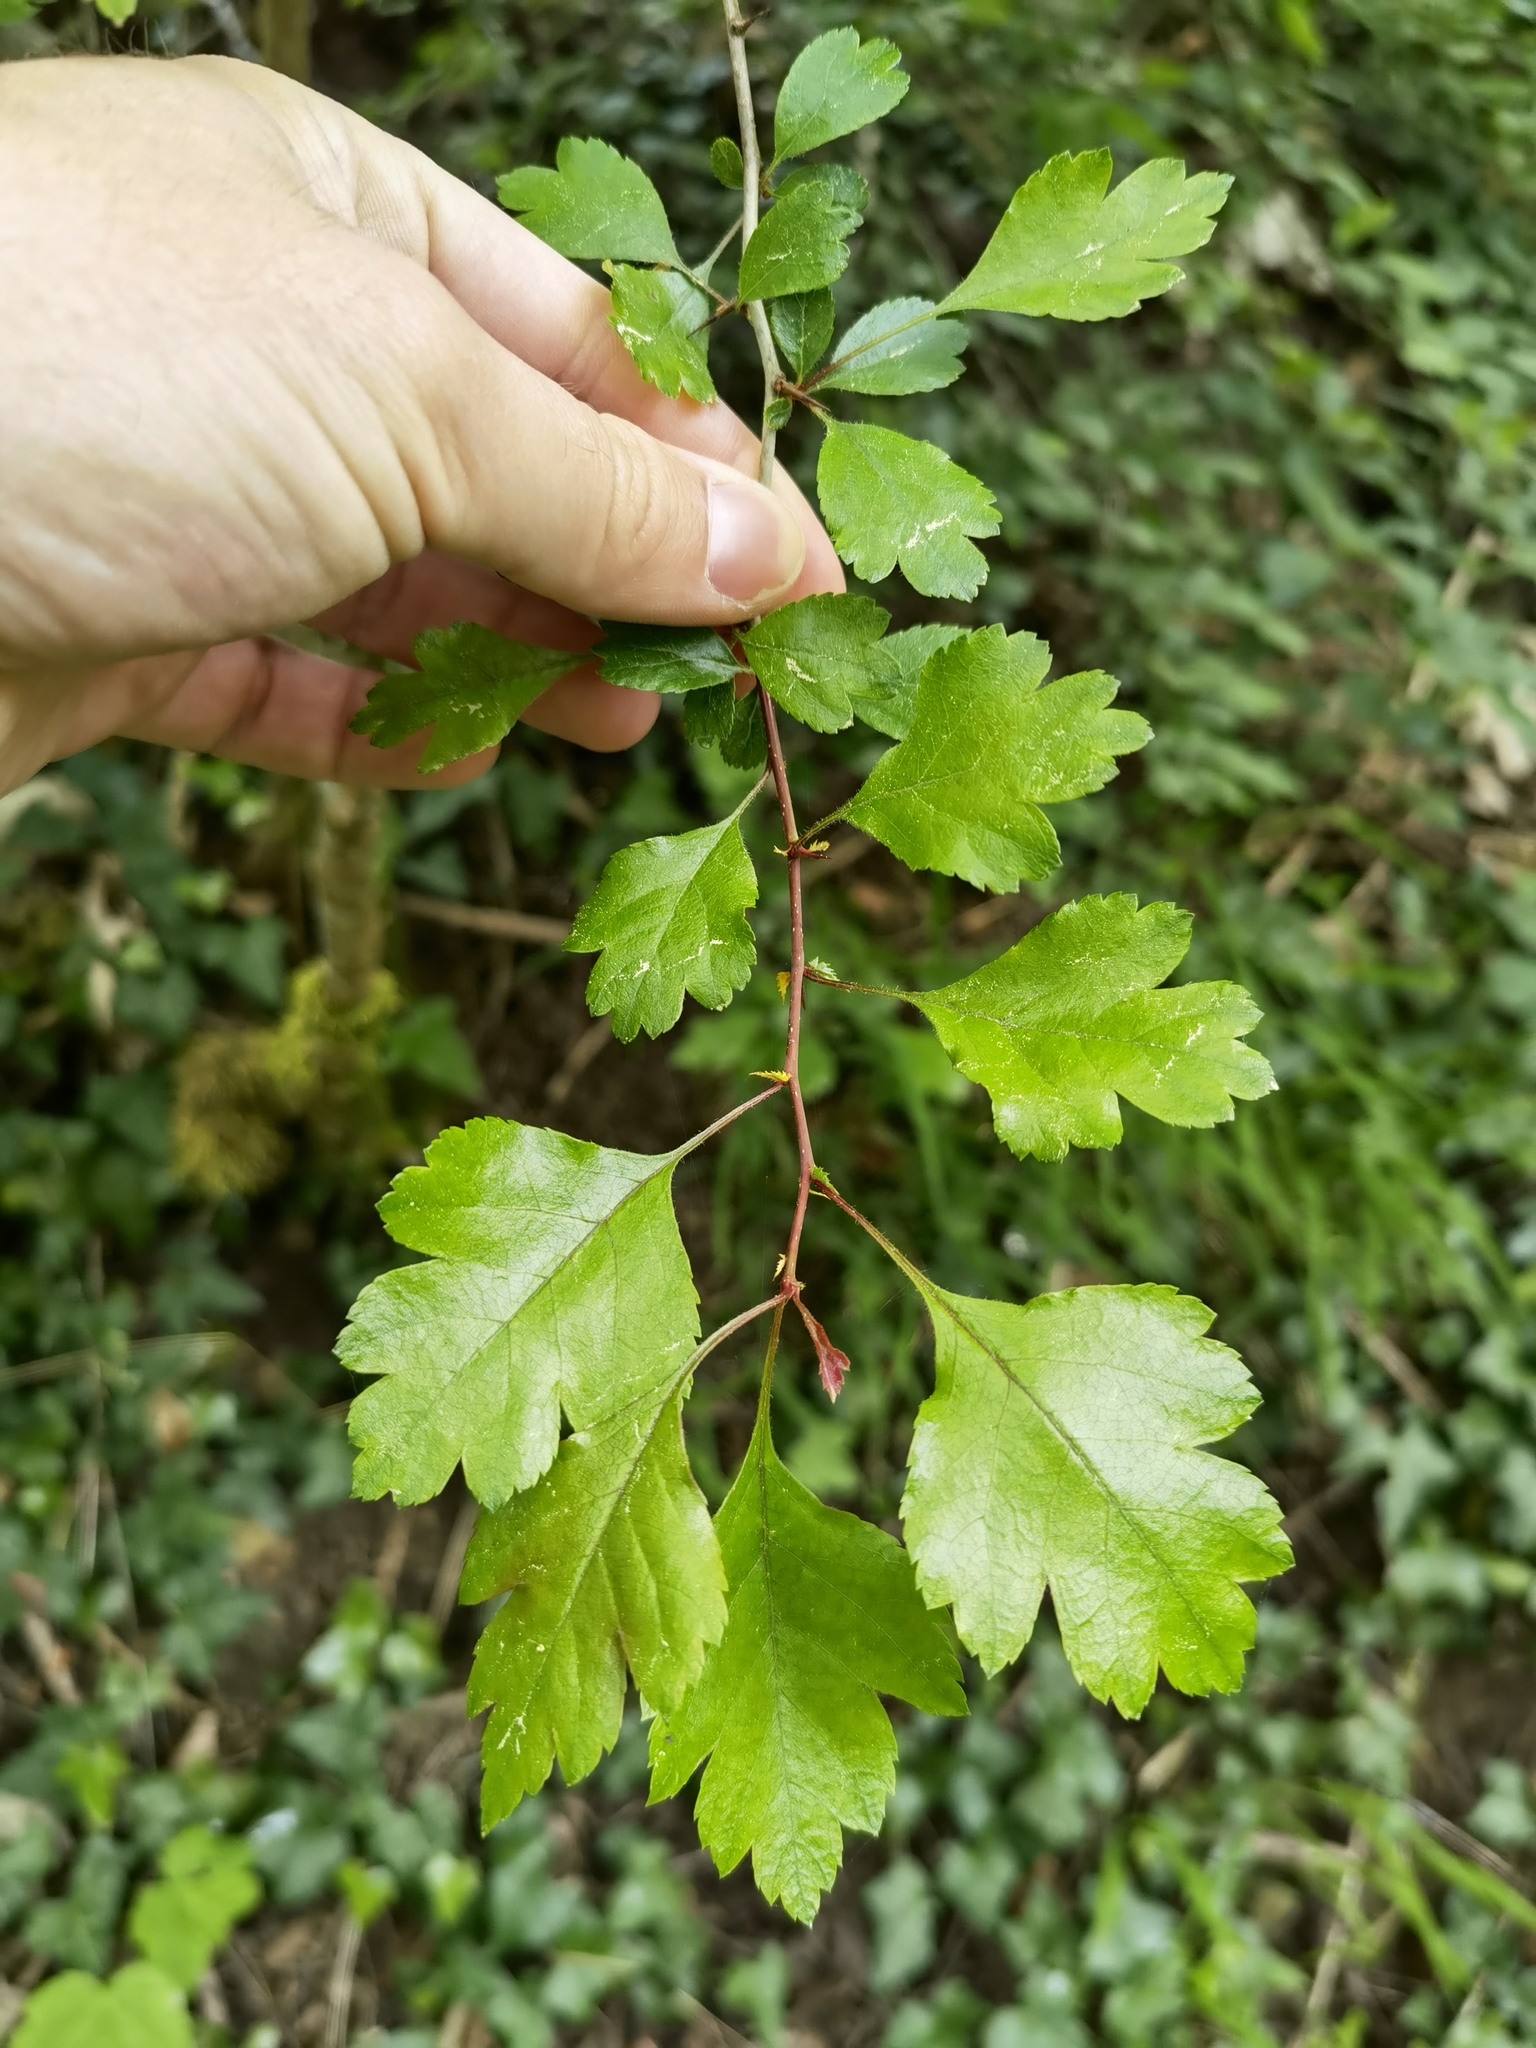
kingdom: Plantae
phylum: Tracheophyta
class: Magnoliopsida
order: Rosales
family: Rosaceae
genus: Crataegus
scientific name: Crataegus laevigata
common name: Midland hawthorn
